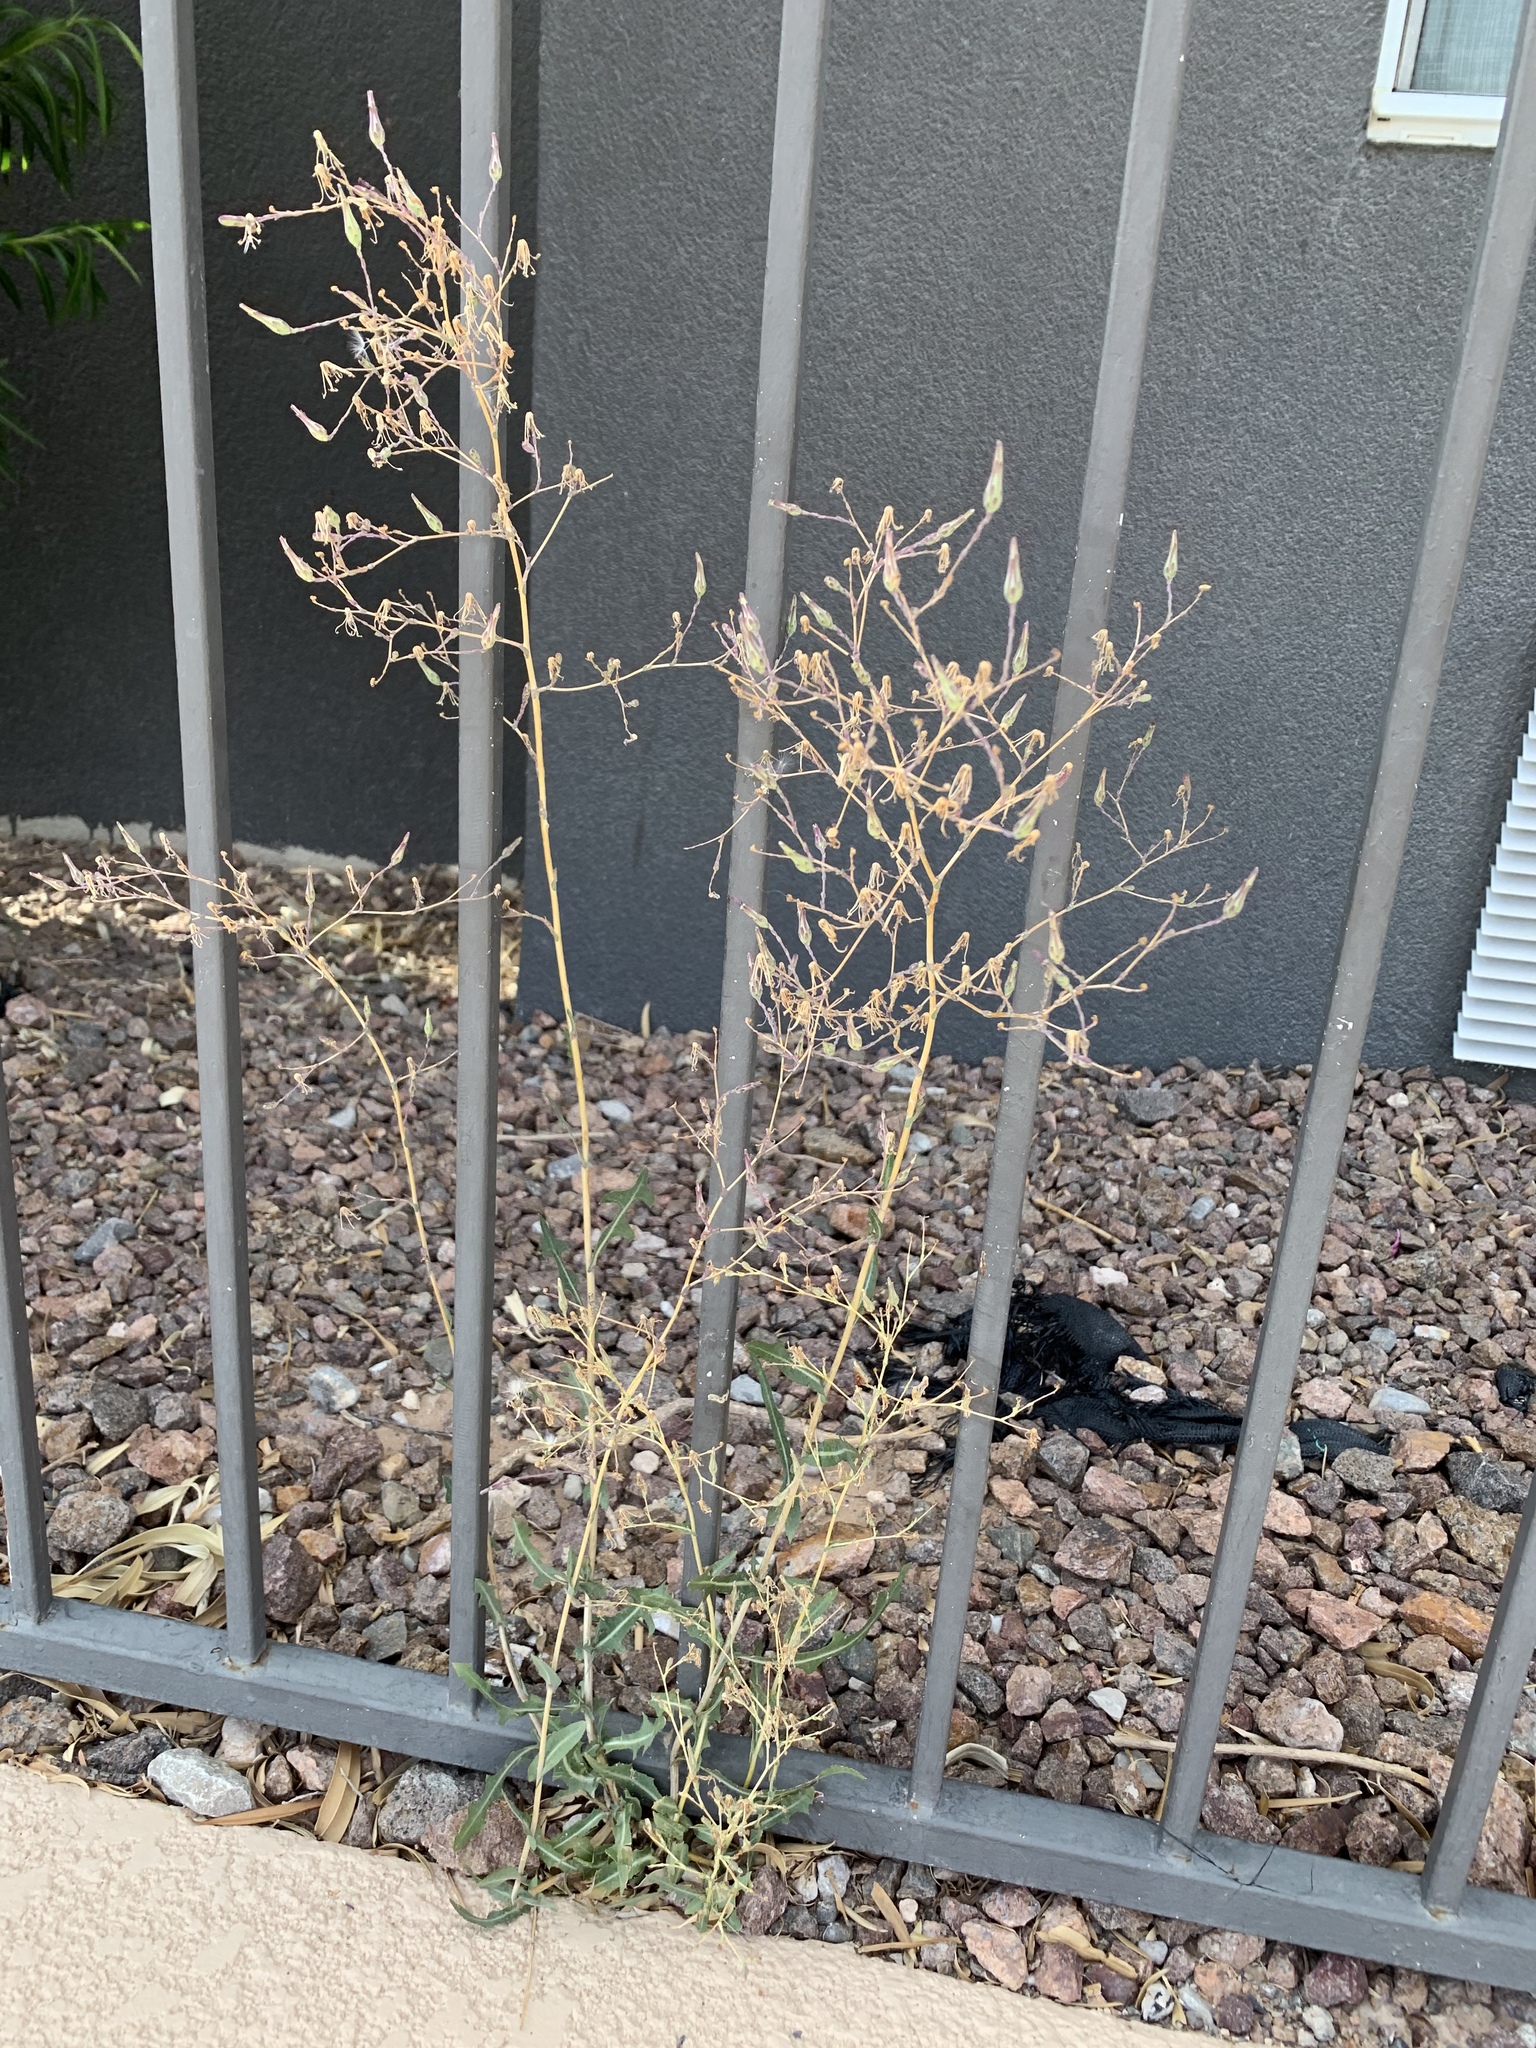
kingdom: Plantae
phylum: Tracheophyta
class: Magnoliopsida
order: Asterales
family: Asteraceae
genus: Lactuca
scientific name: Lactuca serriola
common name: Prickly lettuce
